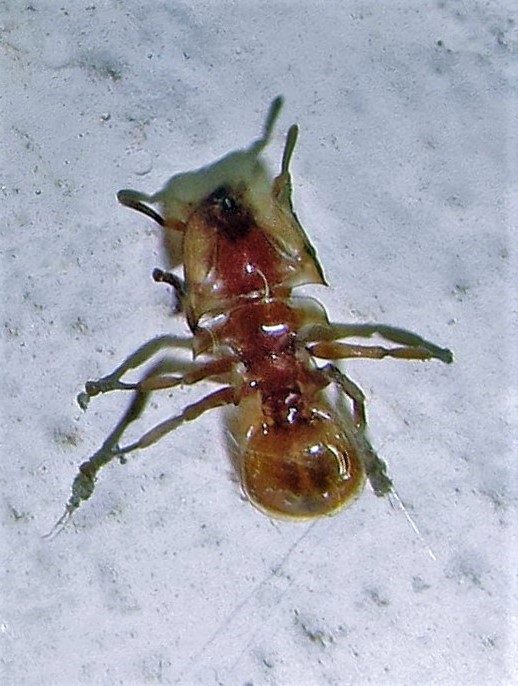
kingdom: Animalia
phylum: Arthropoda
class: Insecta
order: Hymenoptera
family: Formicidae
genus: Cephalotes
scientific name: Cephalotes clypeatus
